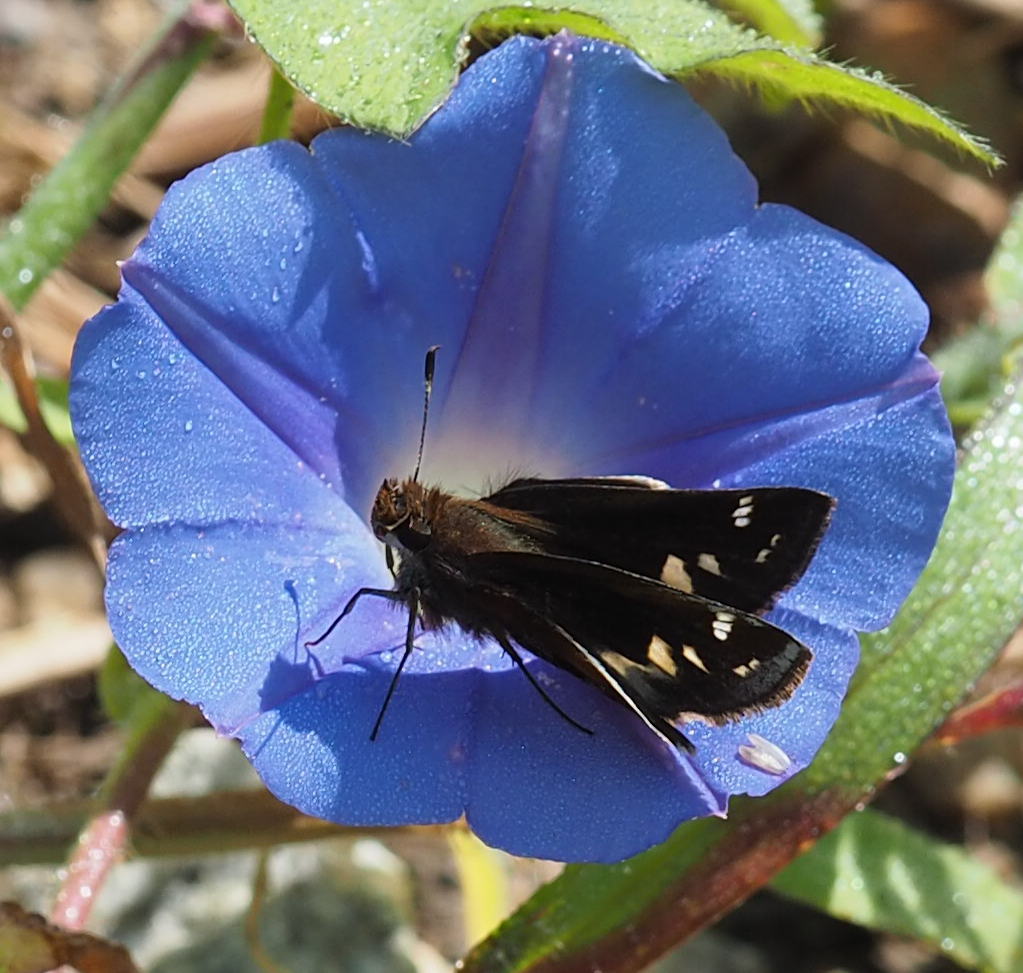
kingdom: Animalia
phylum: Arthropoda
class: Insecta
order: Lepidoptera
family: Hesperiidae
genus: Lon
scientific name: Lon zabulon
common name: Zabulon skipper
